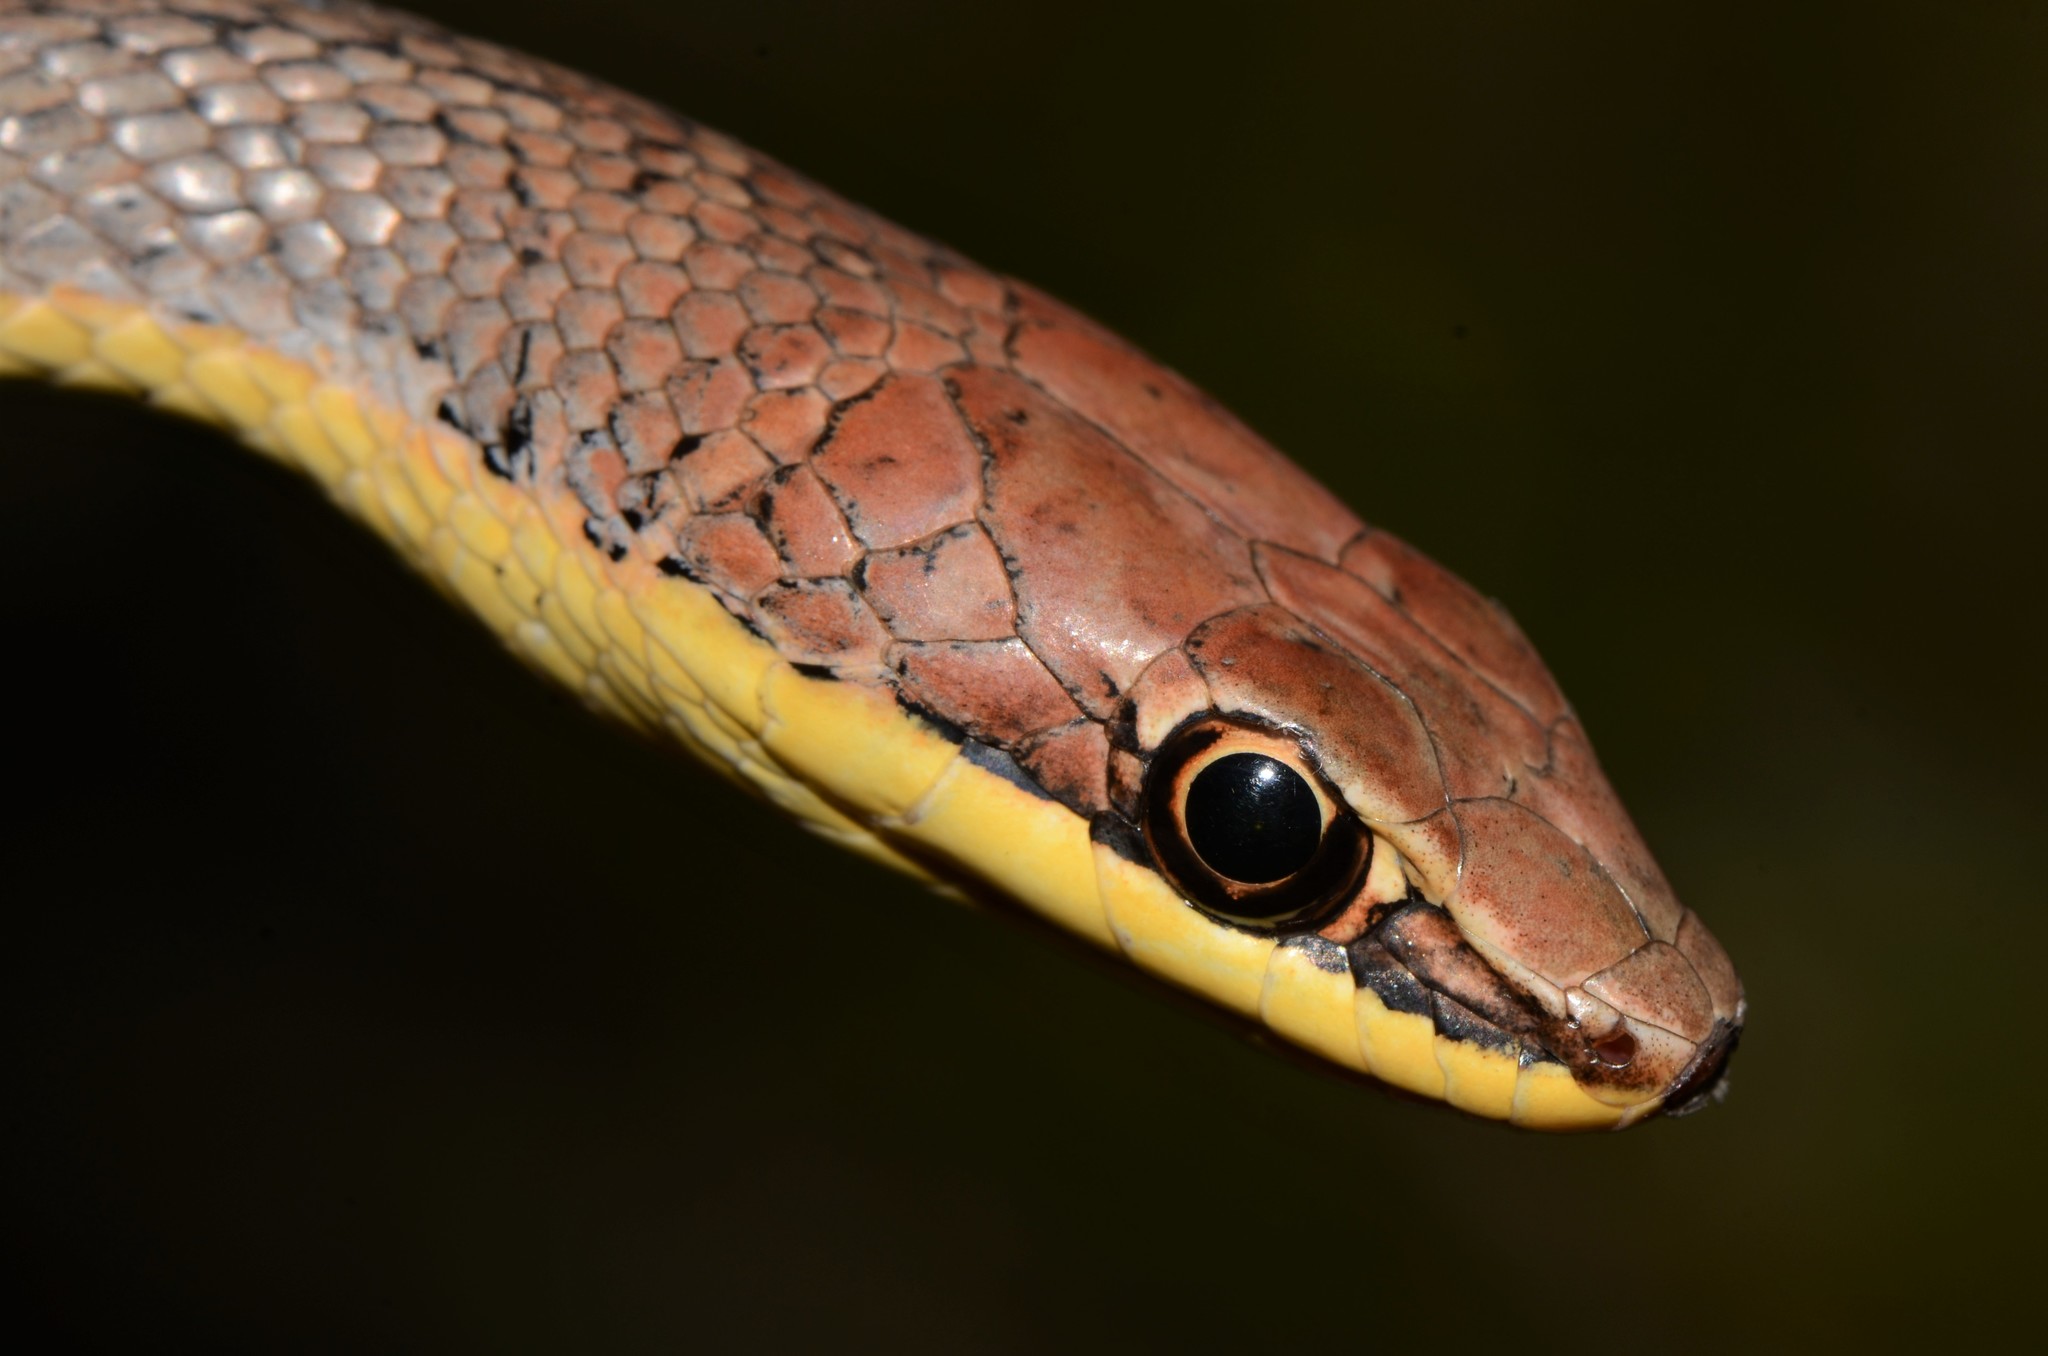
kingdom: Animalia
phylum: Chordata
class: Squamata
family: Psammophiidae
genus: Psammophis
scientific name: Psammophis orientalis
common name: Eastern stripe-bellied sand snake
